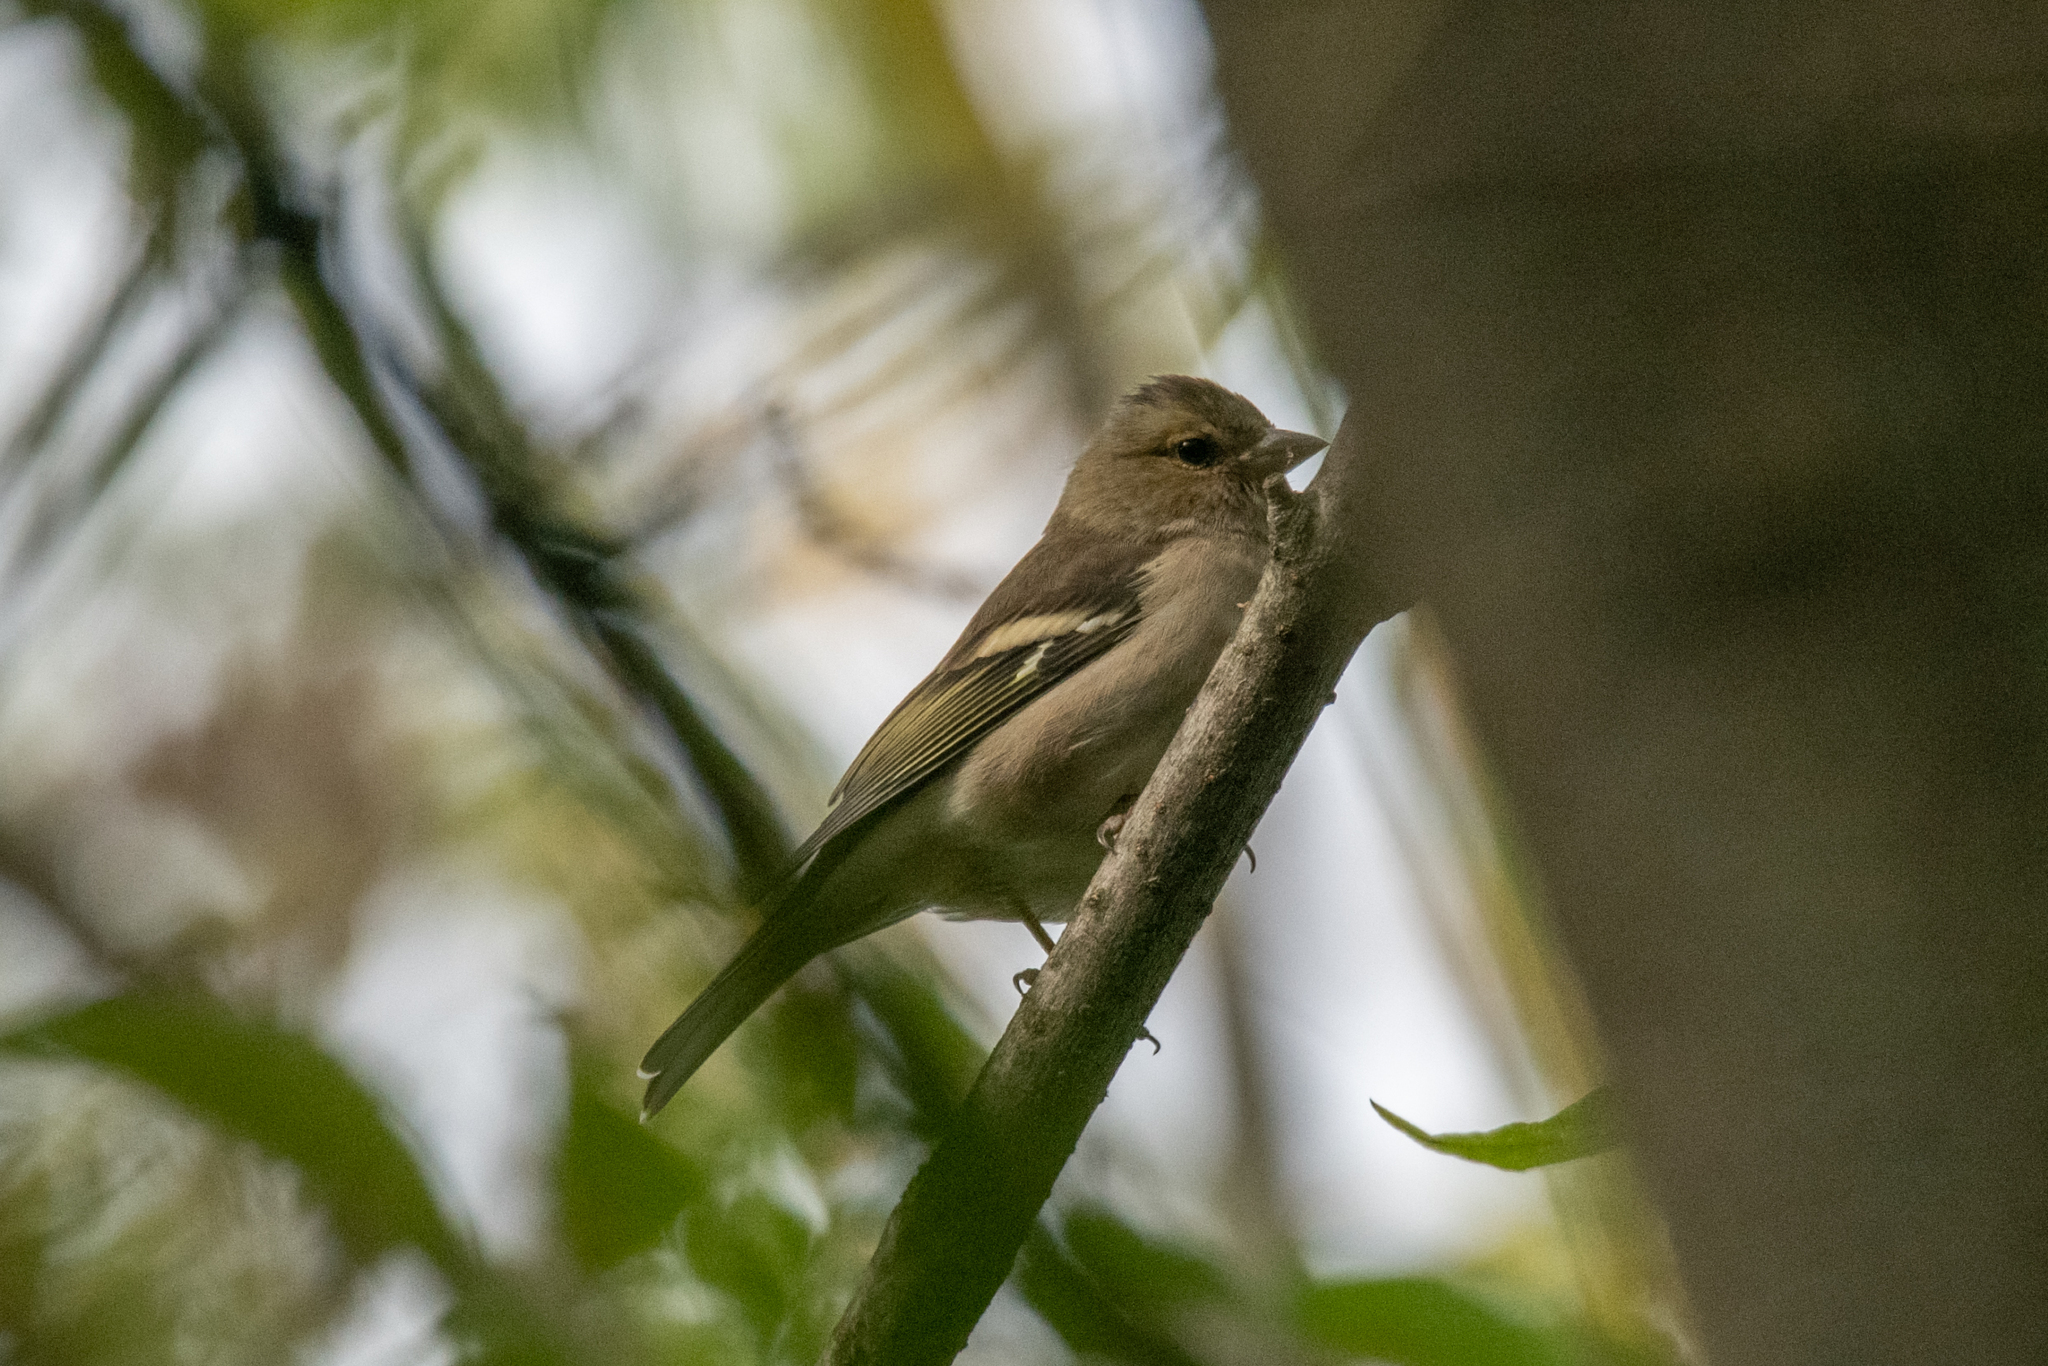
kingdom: Animalia
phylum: Chordata
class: Aves
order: Passeriformes
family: Fringillidae
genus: Fringilla
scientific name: Fringilla coelebs
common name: Common chaffinch
